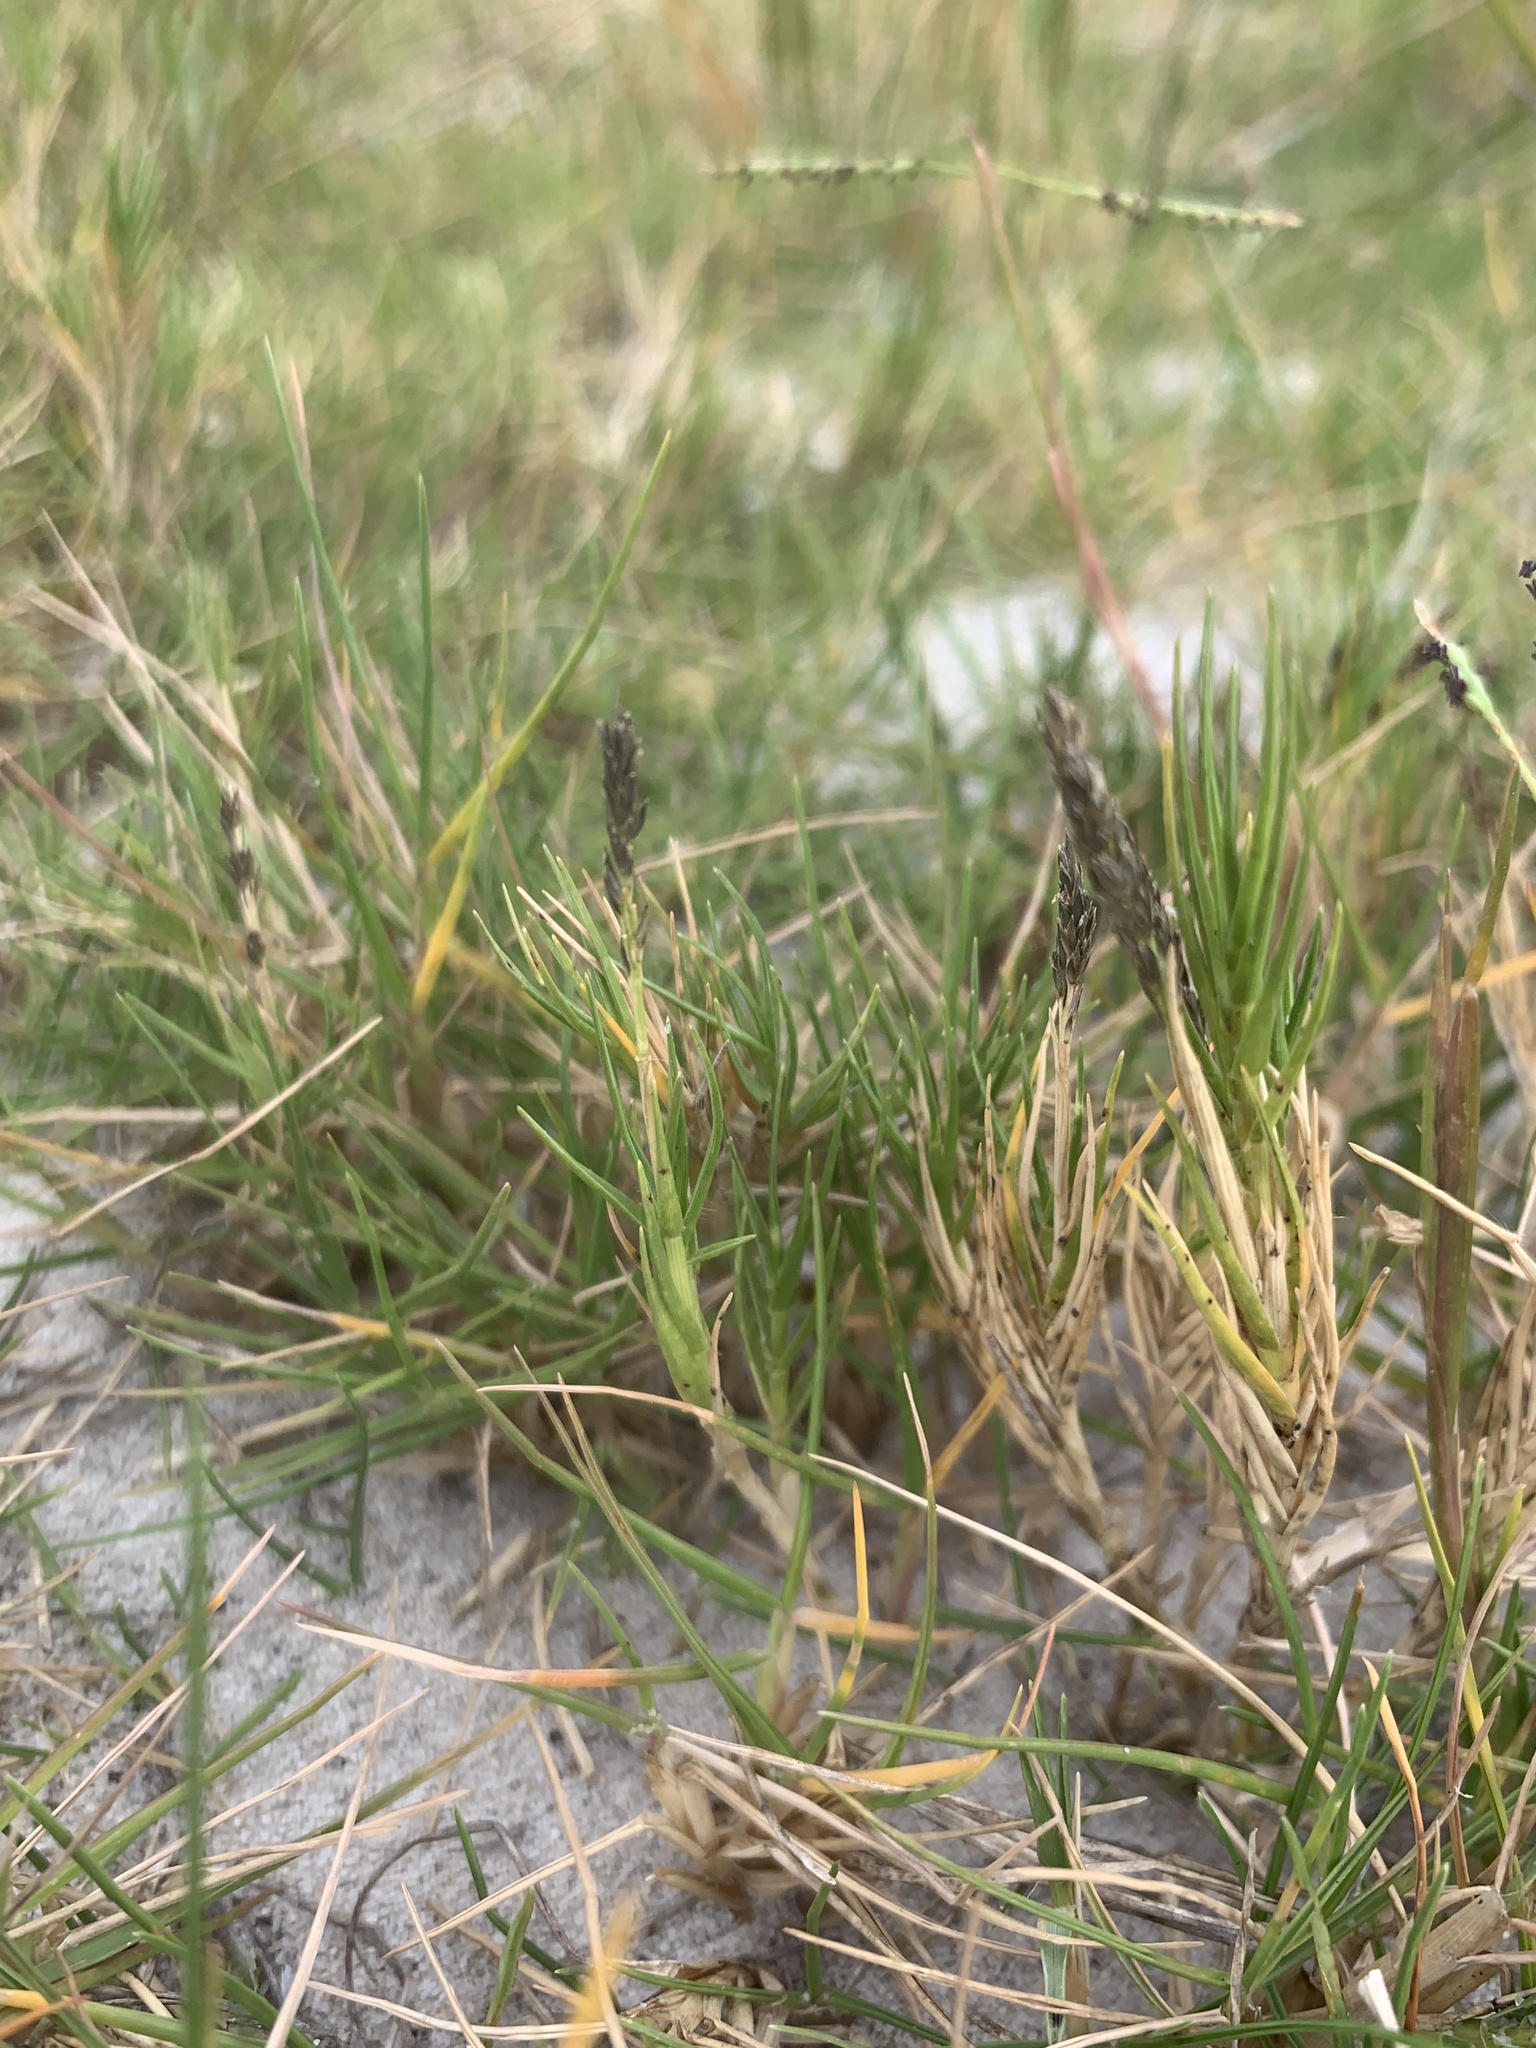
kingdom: Plantae
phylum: Tracheophyta
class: Liliopsida
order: Poales
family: Poaceae
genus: Sporobolus
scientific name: Sporobolus virginicus
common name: Beach dropseed
